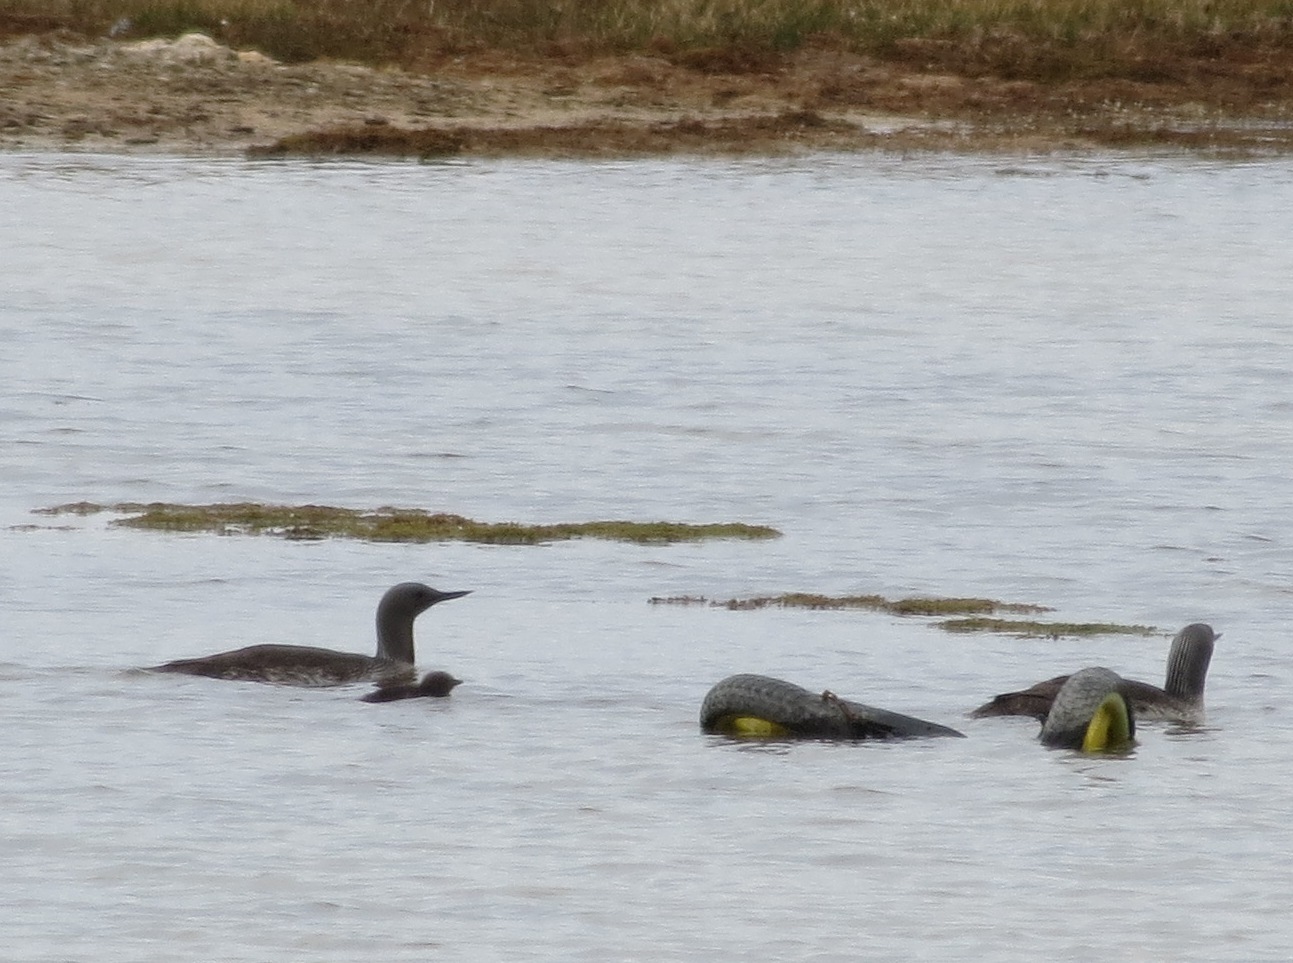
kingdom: Animalia
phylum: Chordata
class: Aves
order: Gaviiformes
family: Gaviidae
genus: Gavia
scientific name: Gavia stellata
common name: Red-throated loon
